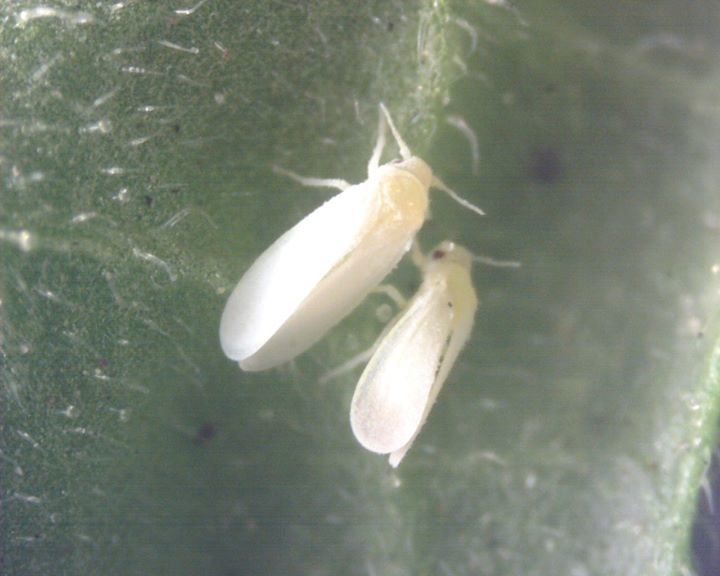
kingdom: Animalia
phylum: Arthropoda
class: Insecta
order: Hemiptera
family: Aleyrodidae
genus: Bemisia
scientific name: Bemisia tabaci
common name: Sweetpotato whitefly
